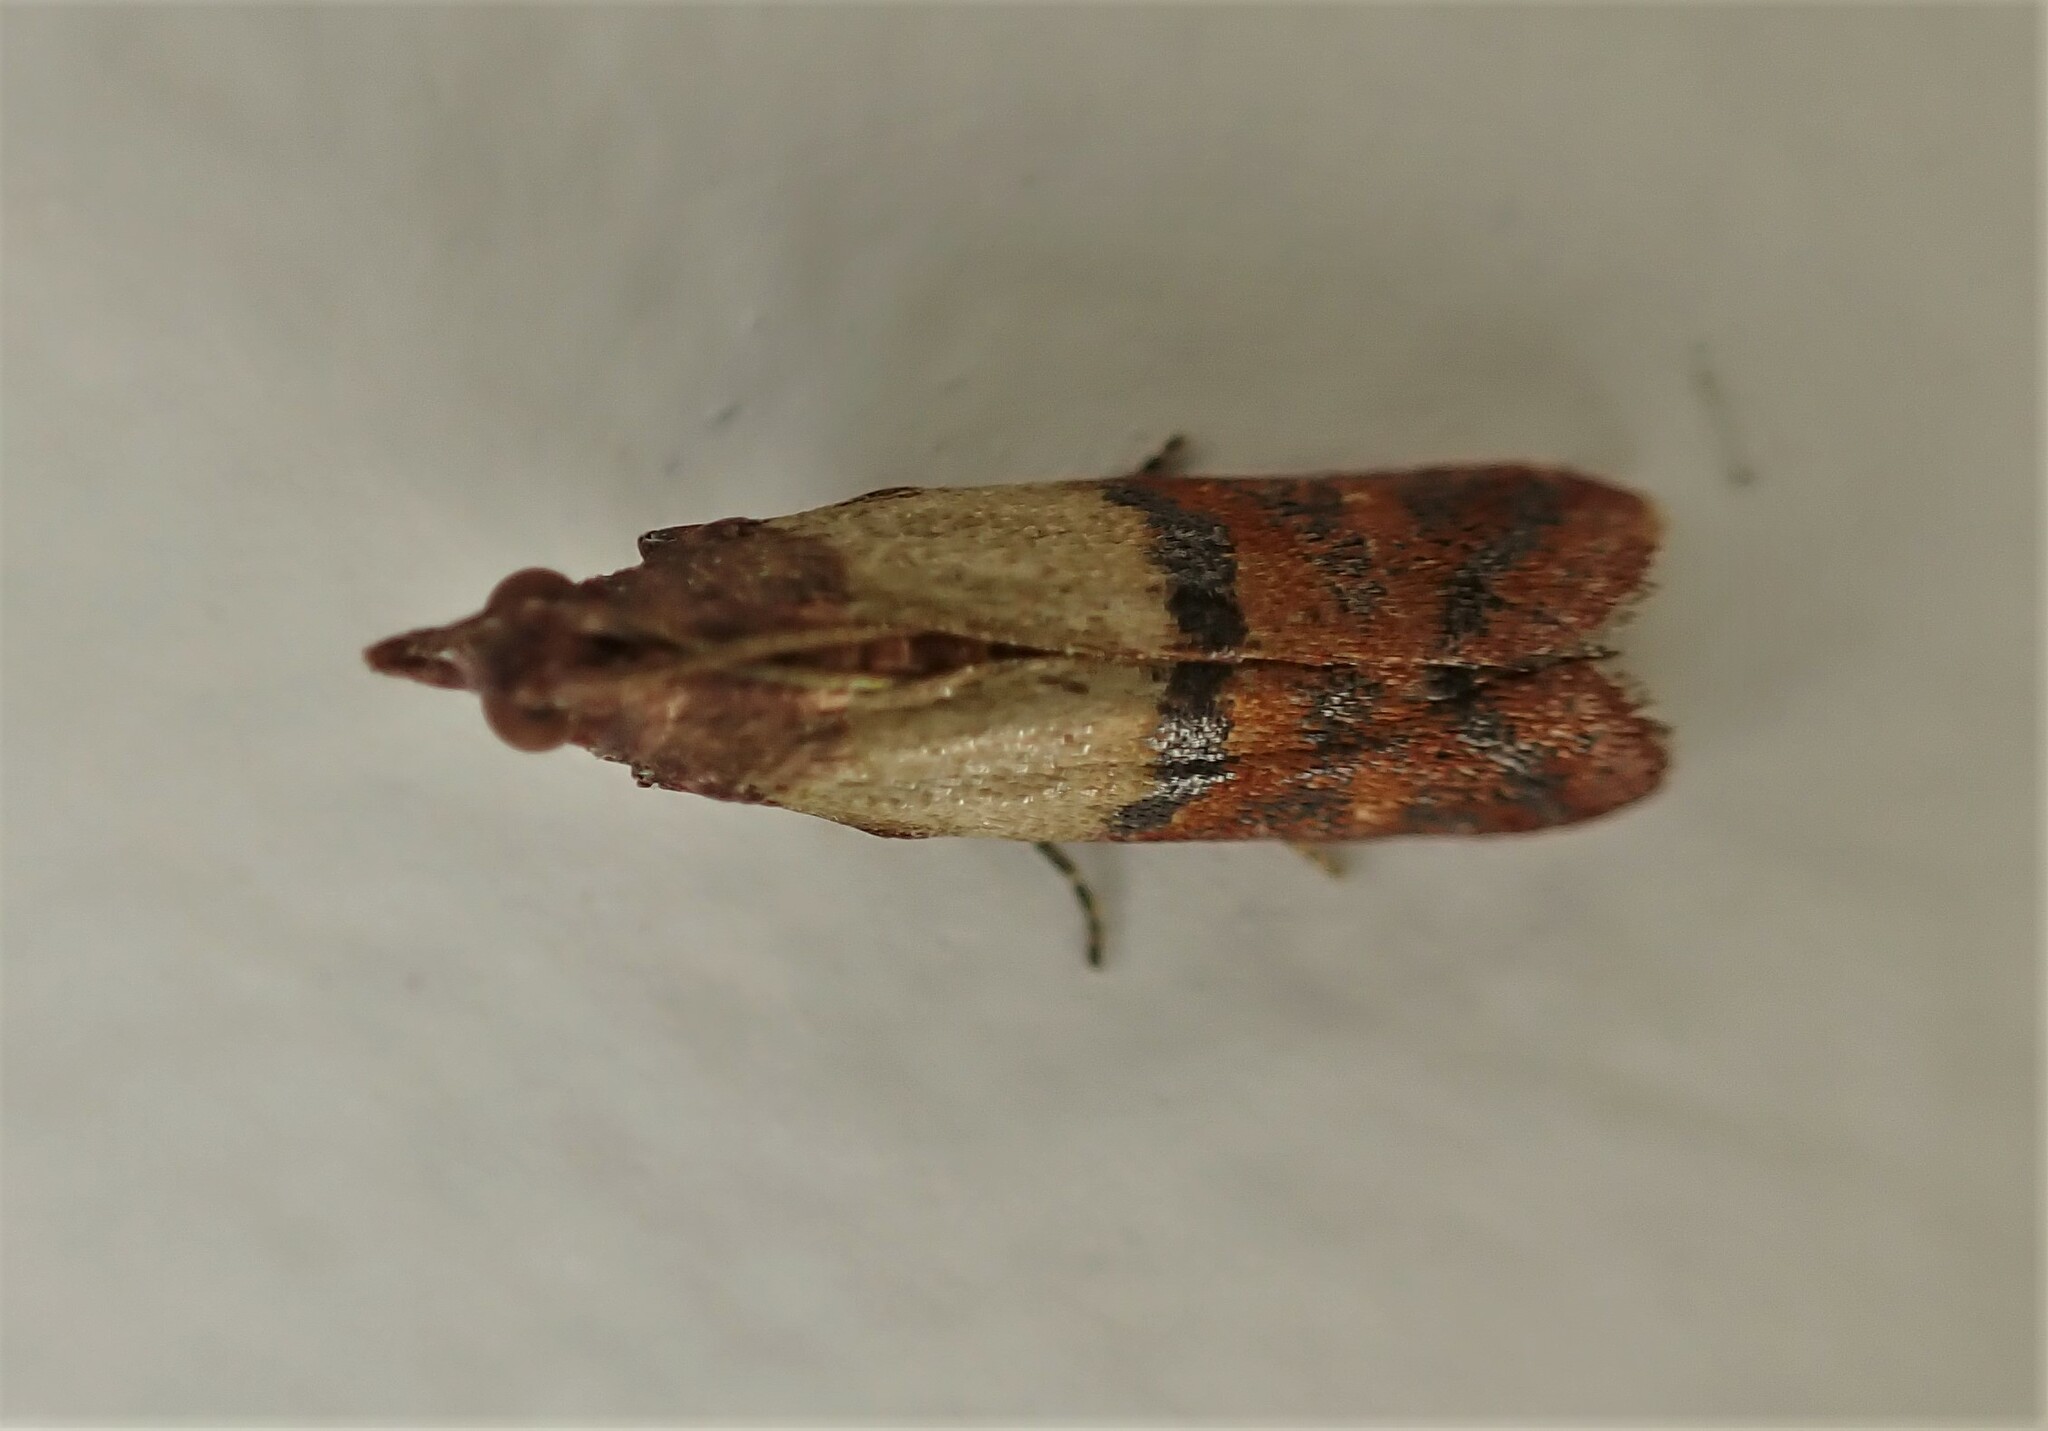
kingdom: Animalia
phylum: Arthropoda
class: Insecta
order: Lepidoptera
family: Pyralidae
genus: Plodia
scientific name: Plodia interpunctella
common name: Indian meal moth
